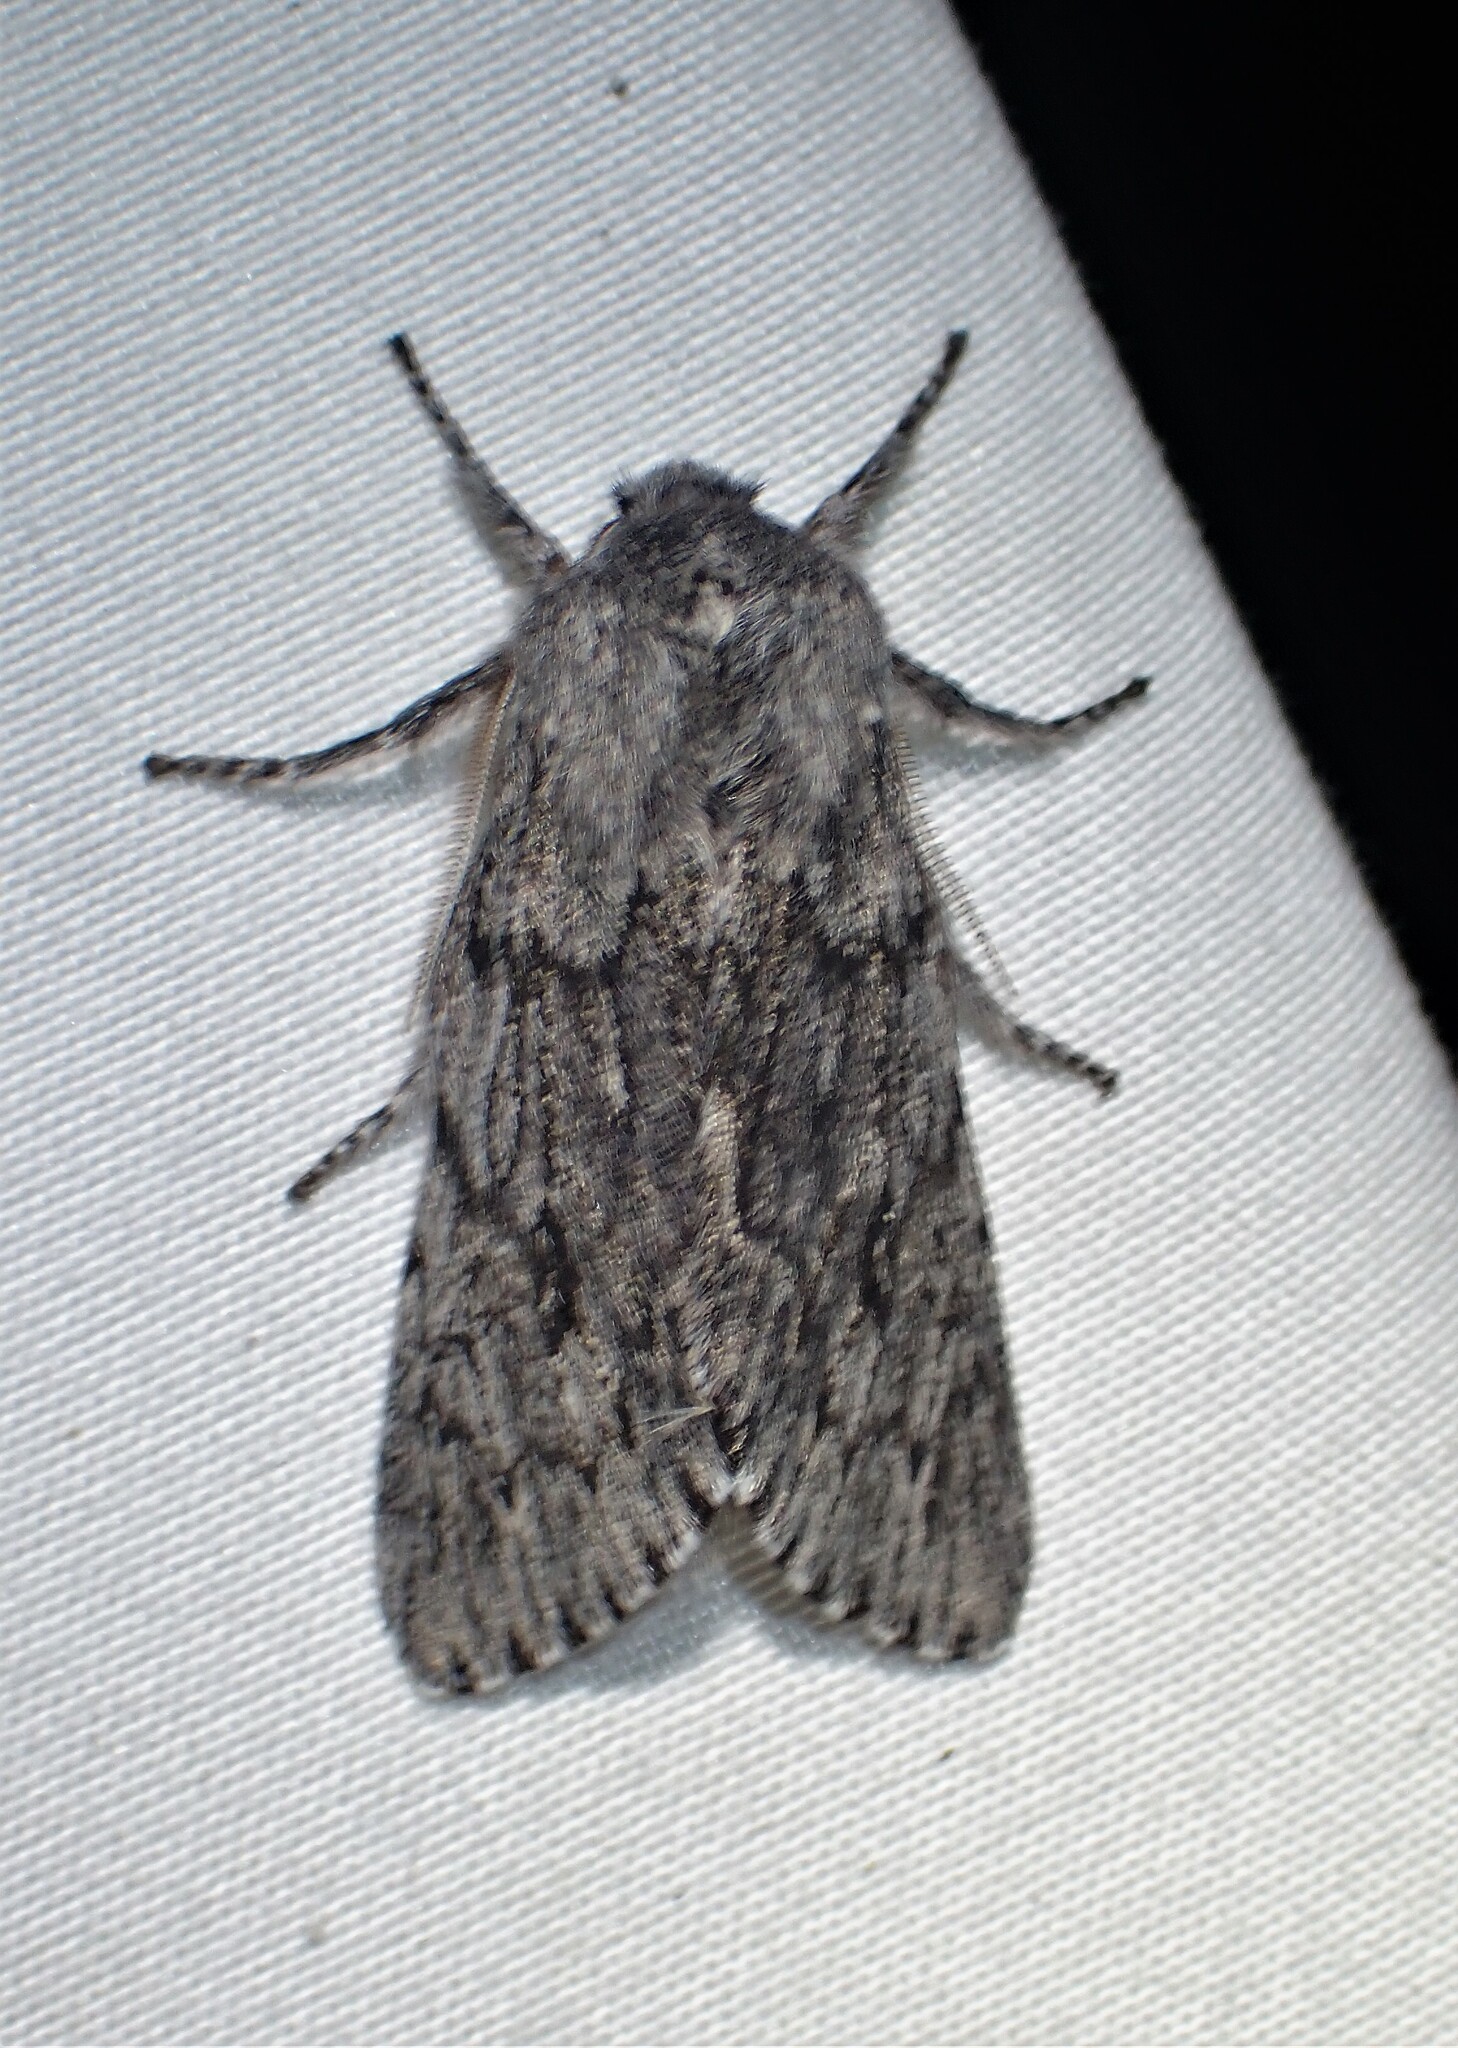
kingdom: Animalia
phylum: Arthropoda
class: Insecta
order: Lepidoptera
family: Noctuidae
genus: Brachionycha
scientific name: Brachionycha borealis
